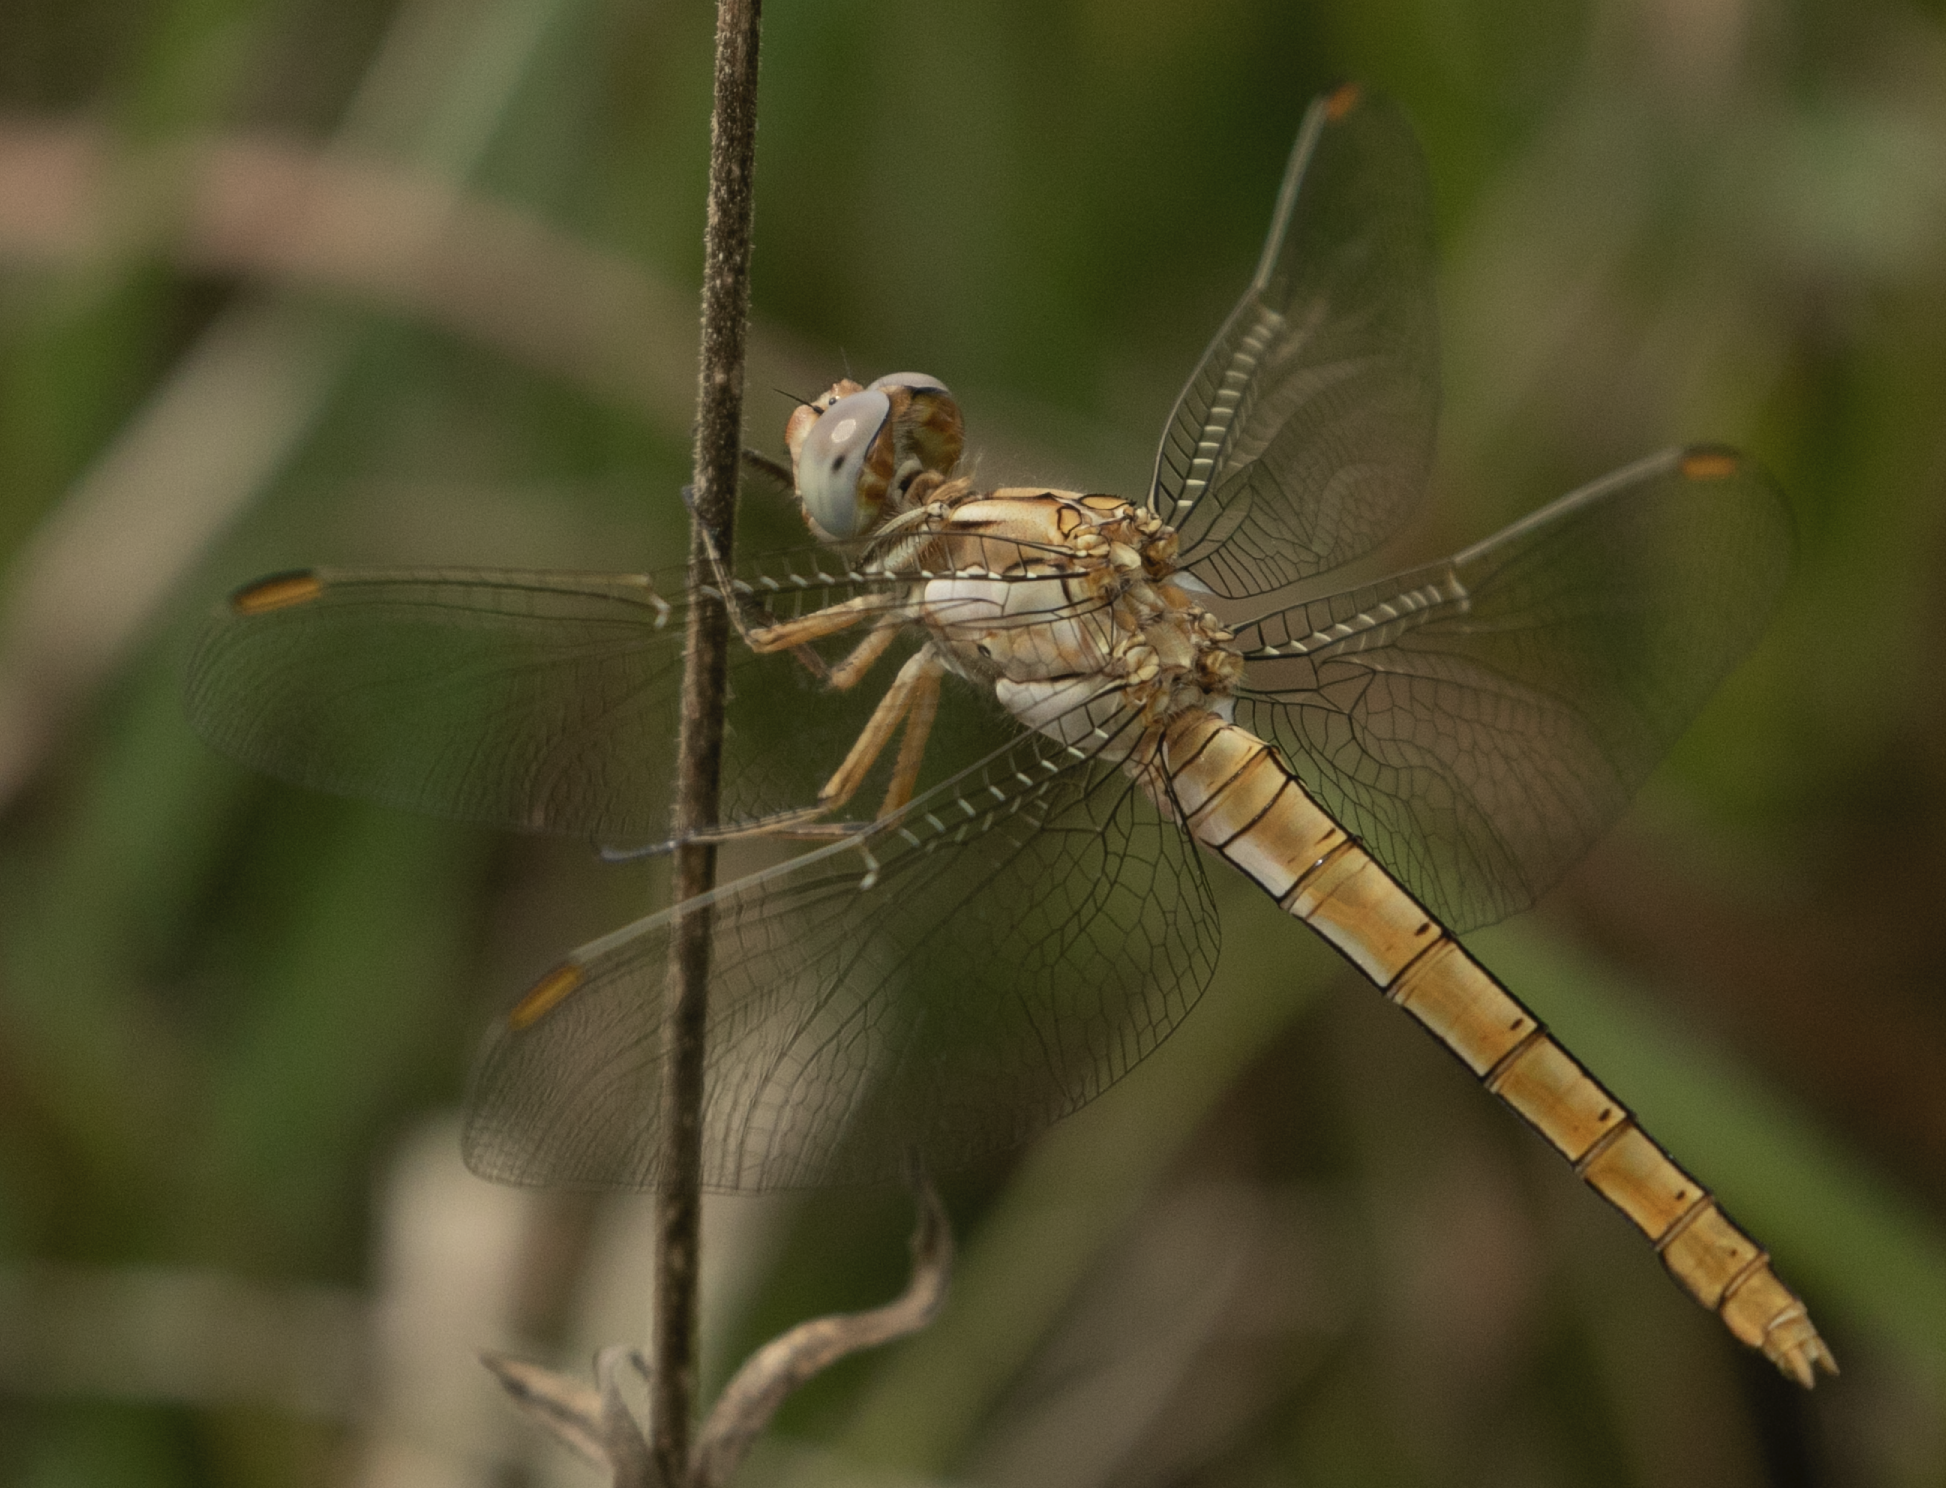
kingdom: Animalia
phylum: Arthropoda
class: Insecta
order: Odonata
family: Libellulidae
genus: Orthetrum
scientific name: Orthetrum brunneum
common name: Southern skimmer
